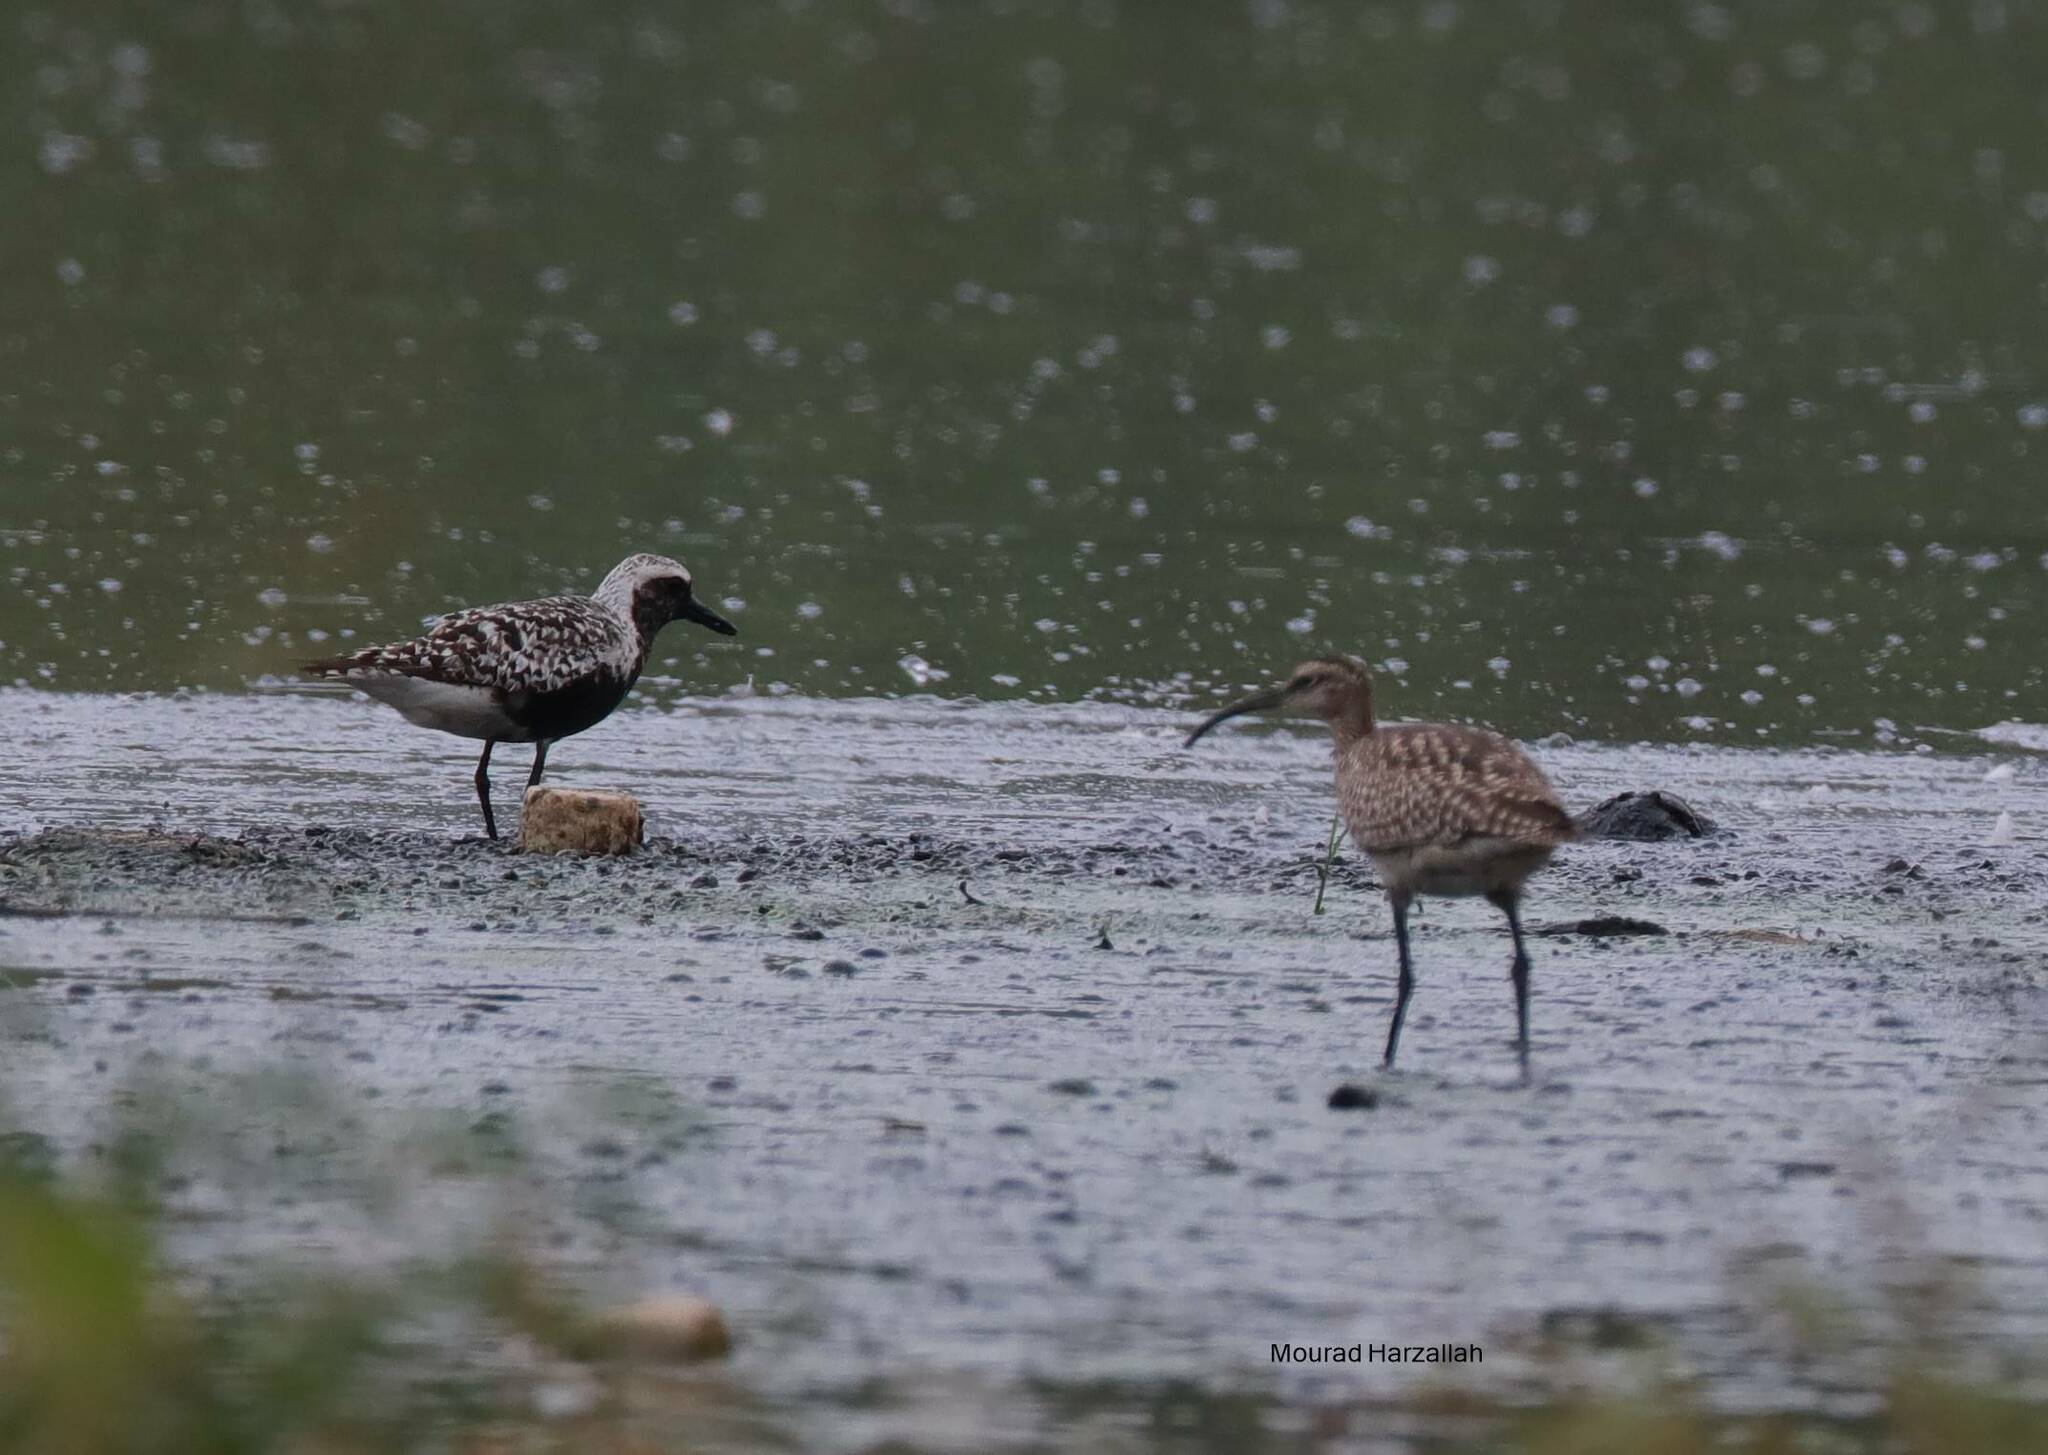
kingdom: Animalia
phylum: Chordata
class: Aves
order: Charadriiformes
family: Charadriidae
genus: Pluvialis
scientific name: Pluvialis squatarola
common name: Grey plover
